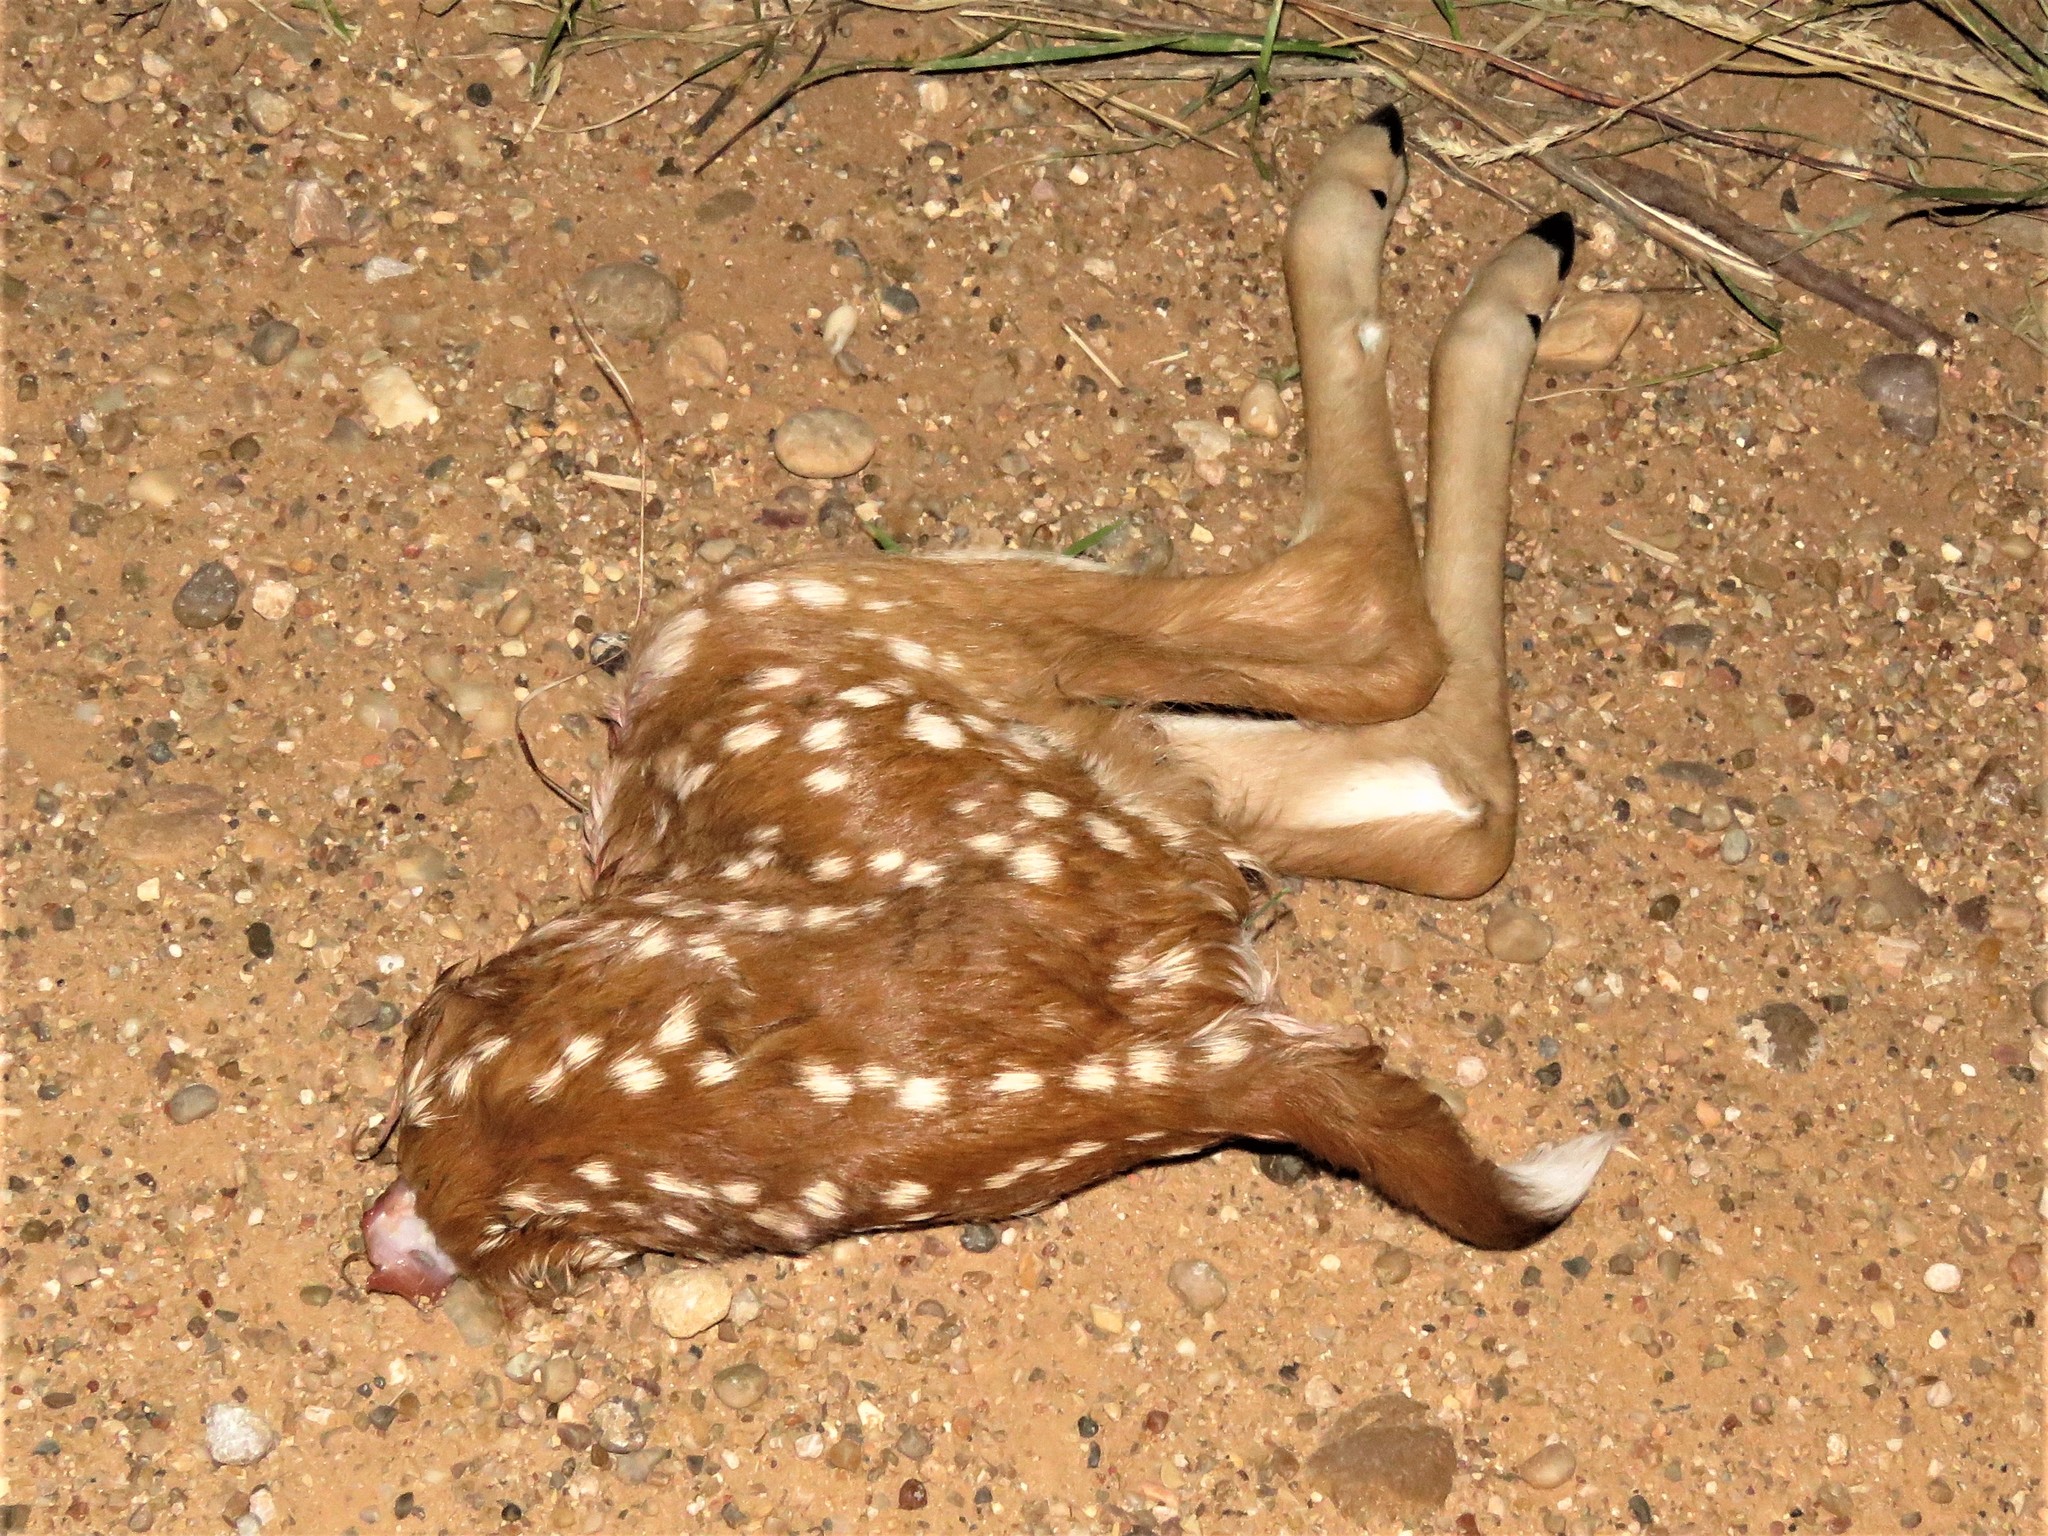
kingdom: Animalia
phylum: Chordata
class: Mammalia
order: Artiodactyla
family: Cervidae
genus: Odocoileus
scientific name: Odocoileus virginianus
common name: White-tailed deer
